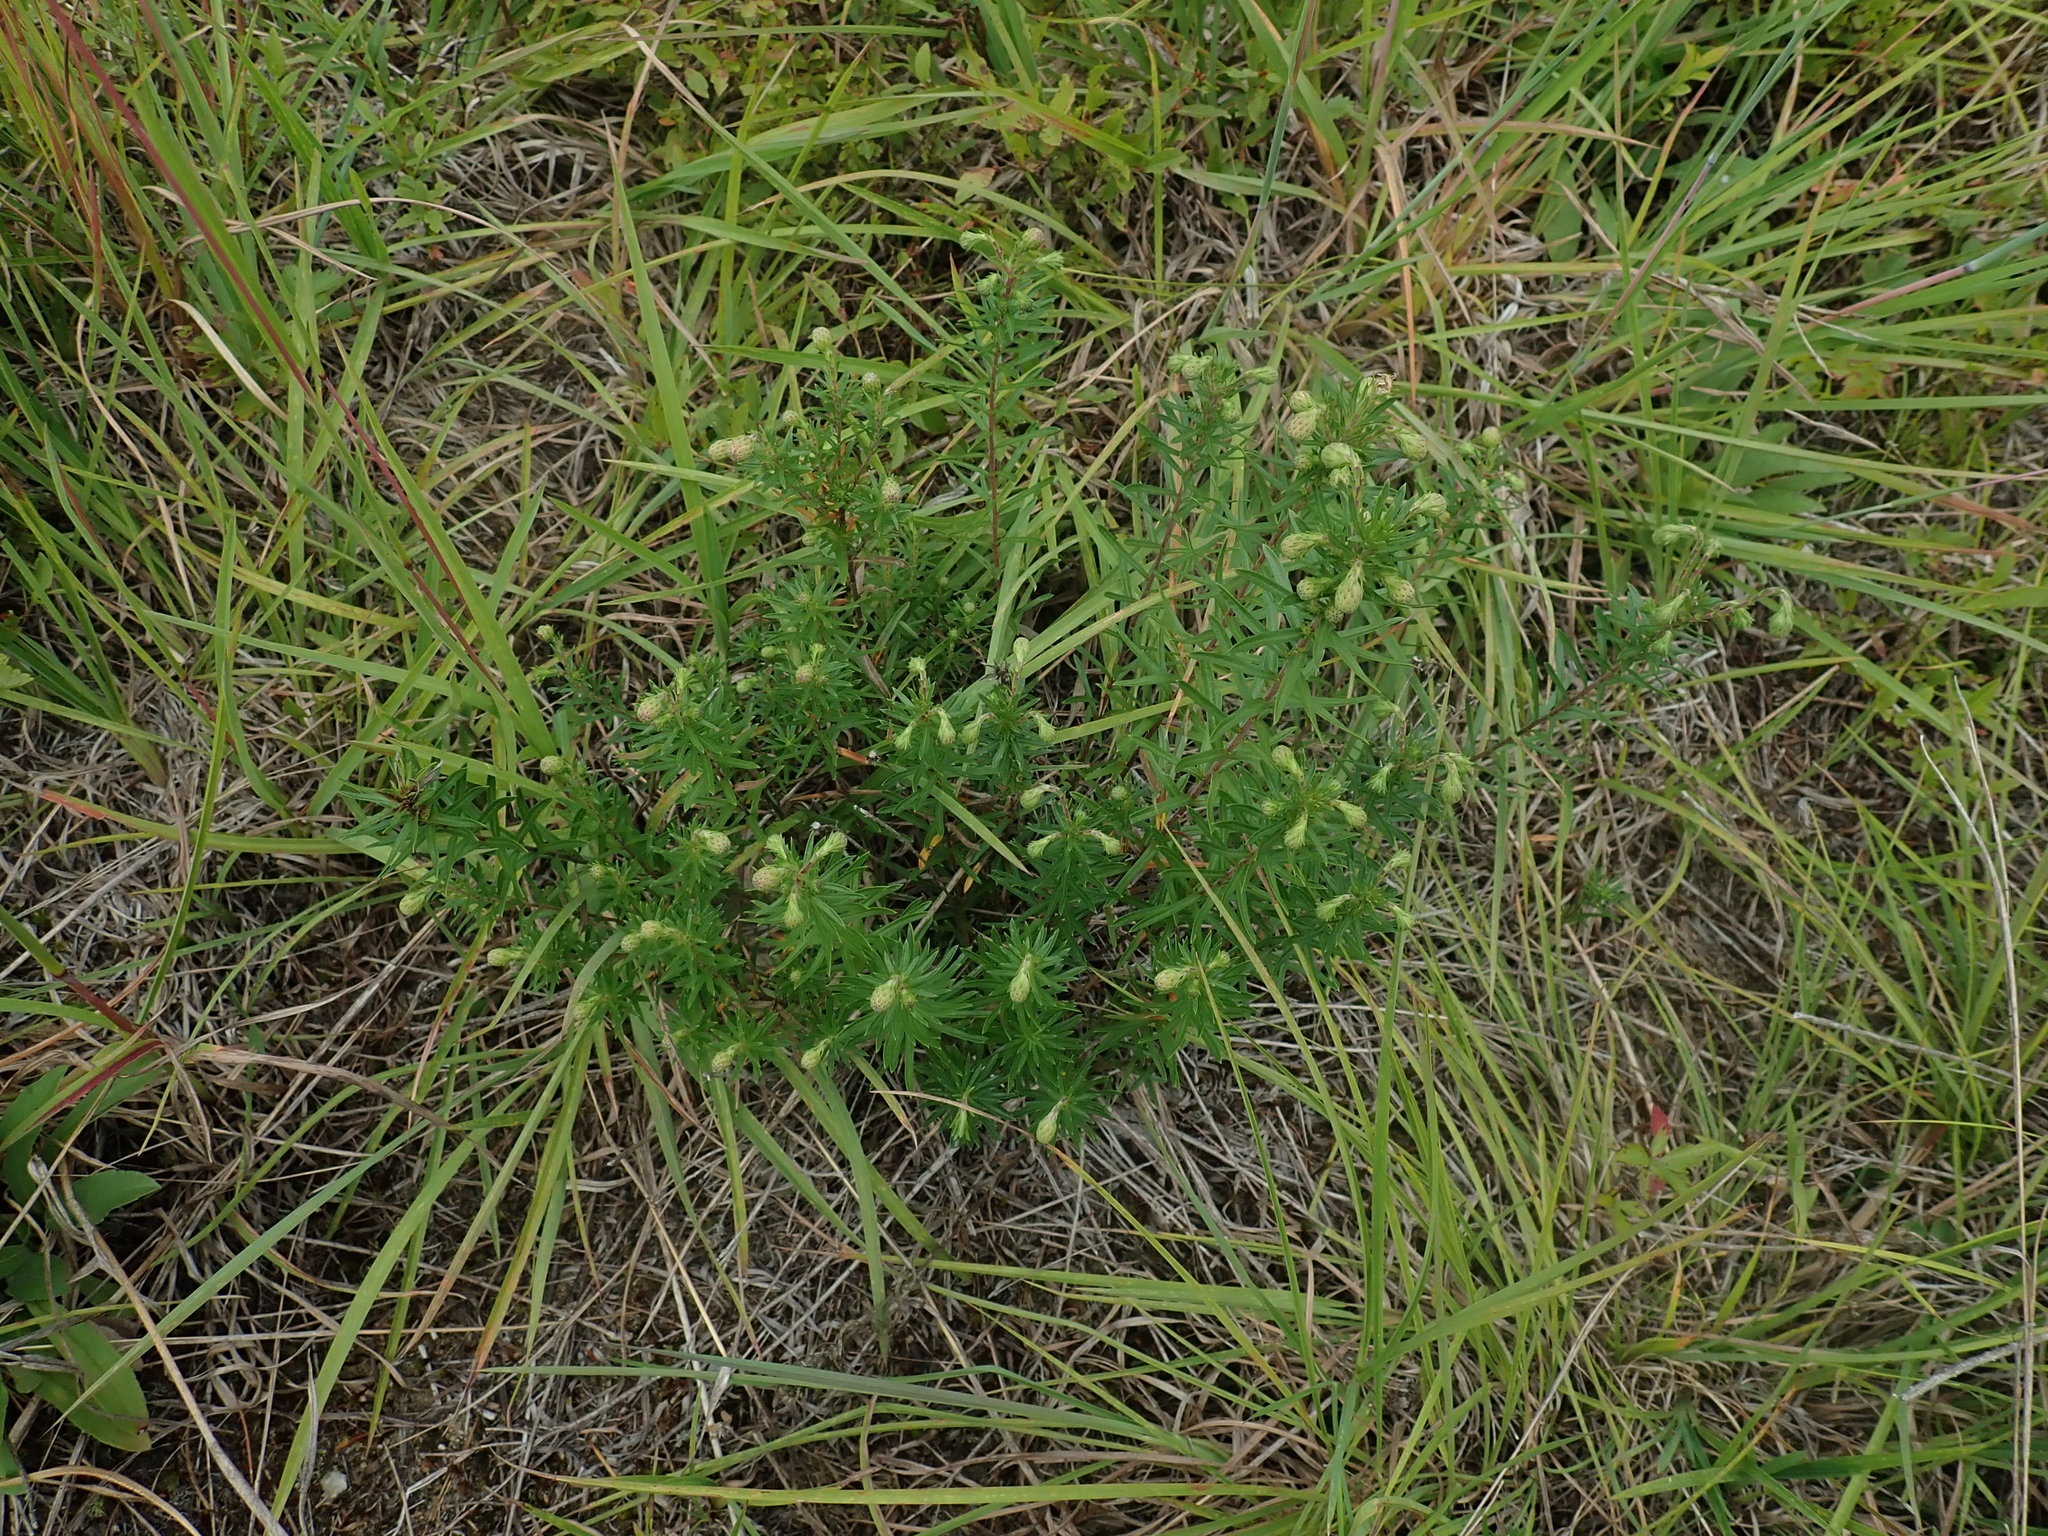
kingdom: Plantae
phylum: Tracheophyta
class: Magnoliopsida
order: Asterales
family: Asteraceae
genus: Ionactis
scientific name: Ionactis linariifolia
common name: Flax-leaf aster
